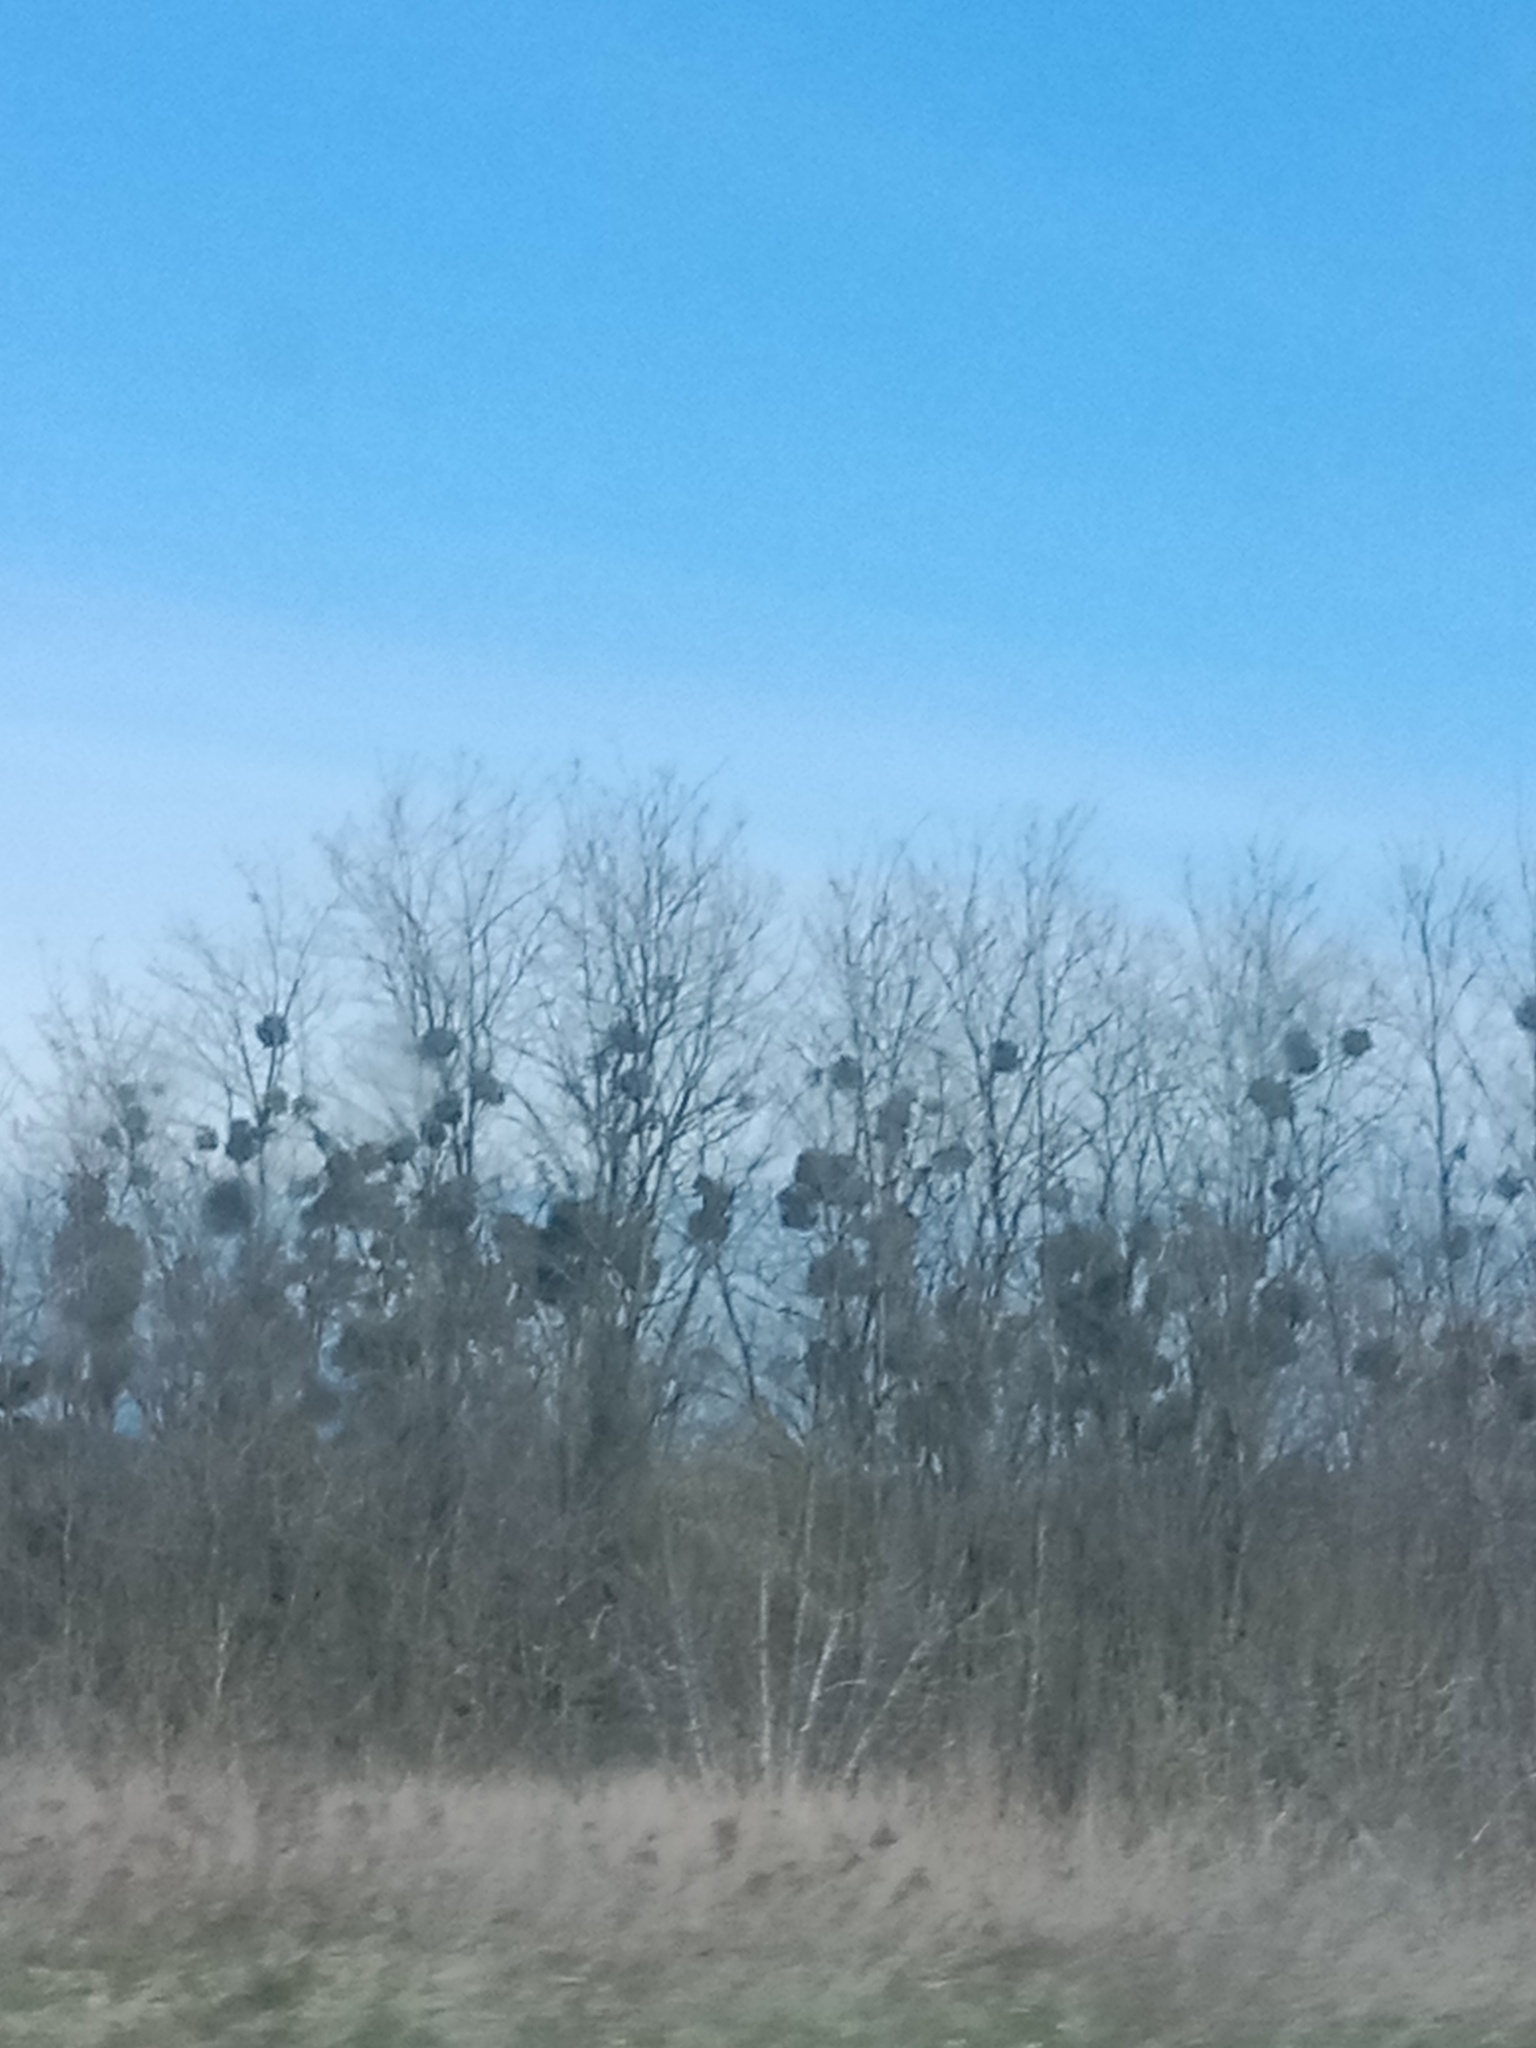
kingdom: Plantae
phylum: Tracheophyta
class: Magnoliopsida
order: Santalales
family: Viscaceae
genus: Viscum
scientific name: Viscum album
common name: Mistletoe
